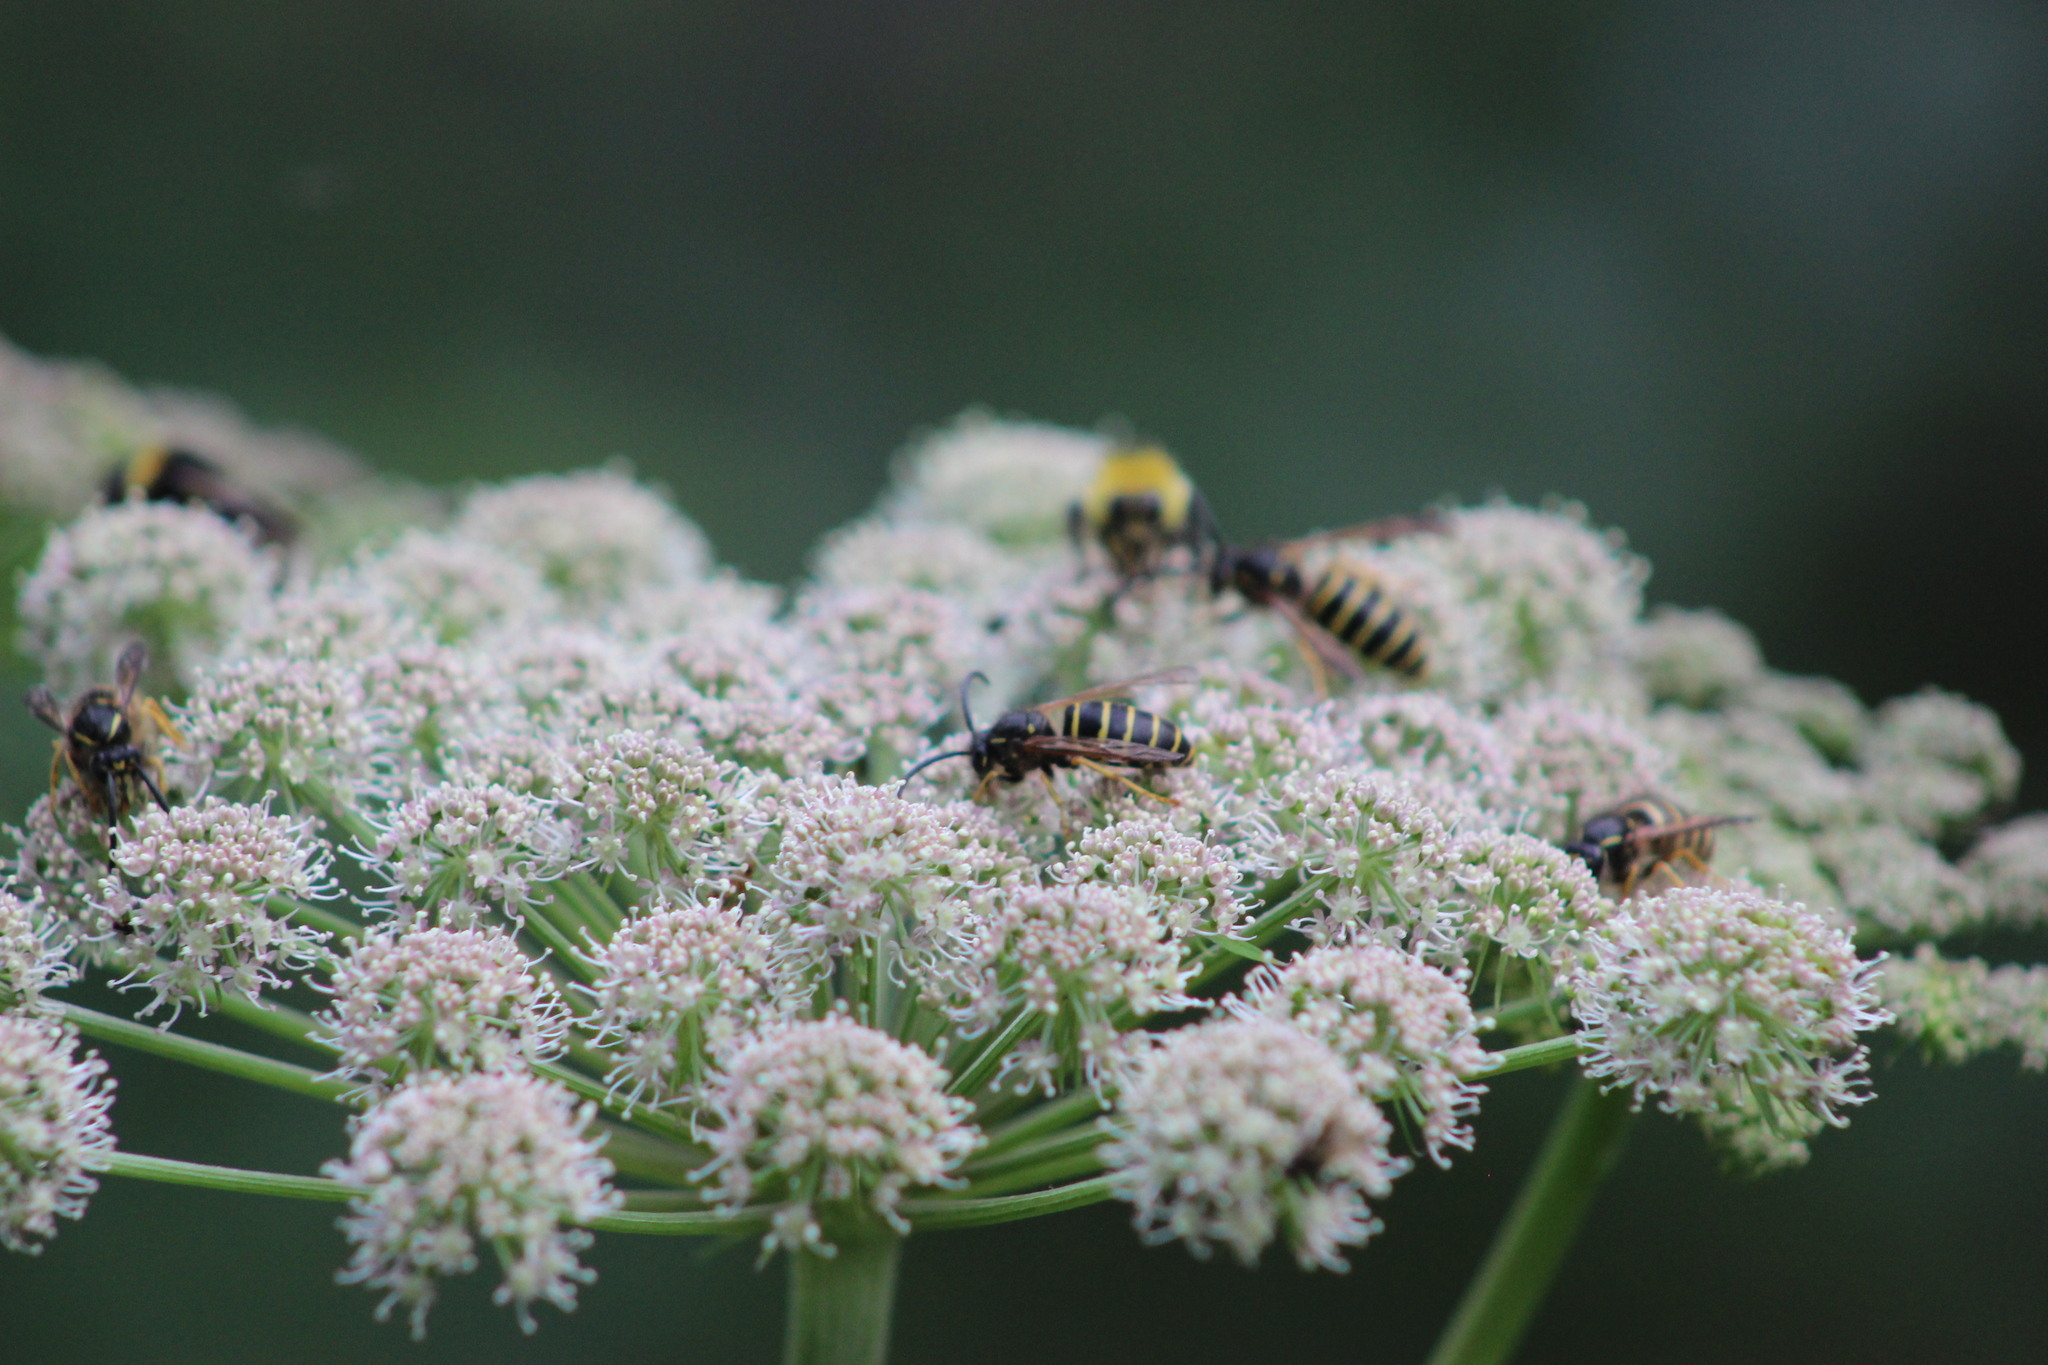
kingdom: Animalia
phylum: Arthropoda
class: Insecta
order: Hymenoptera
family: Vespidae
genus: Dolichovespula
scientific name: Dolichovespula saxonica
